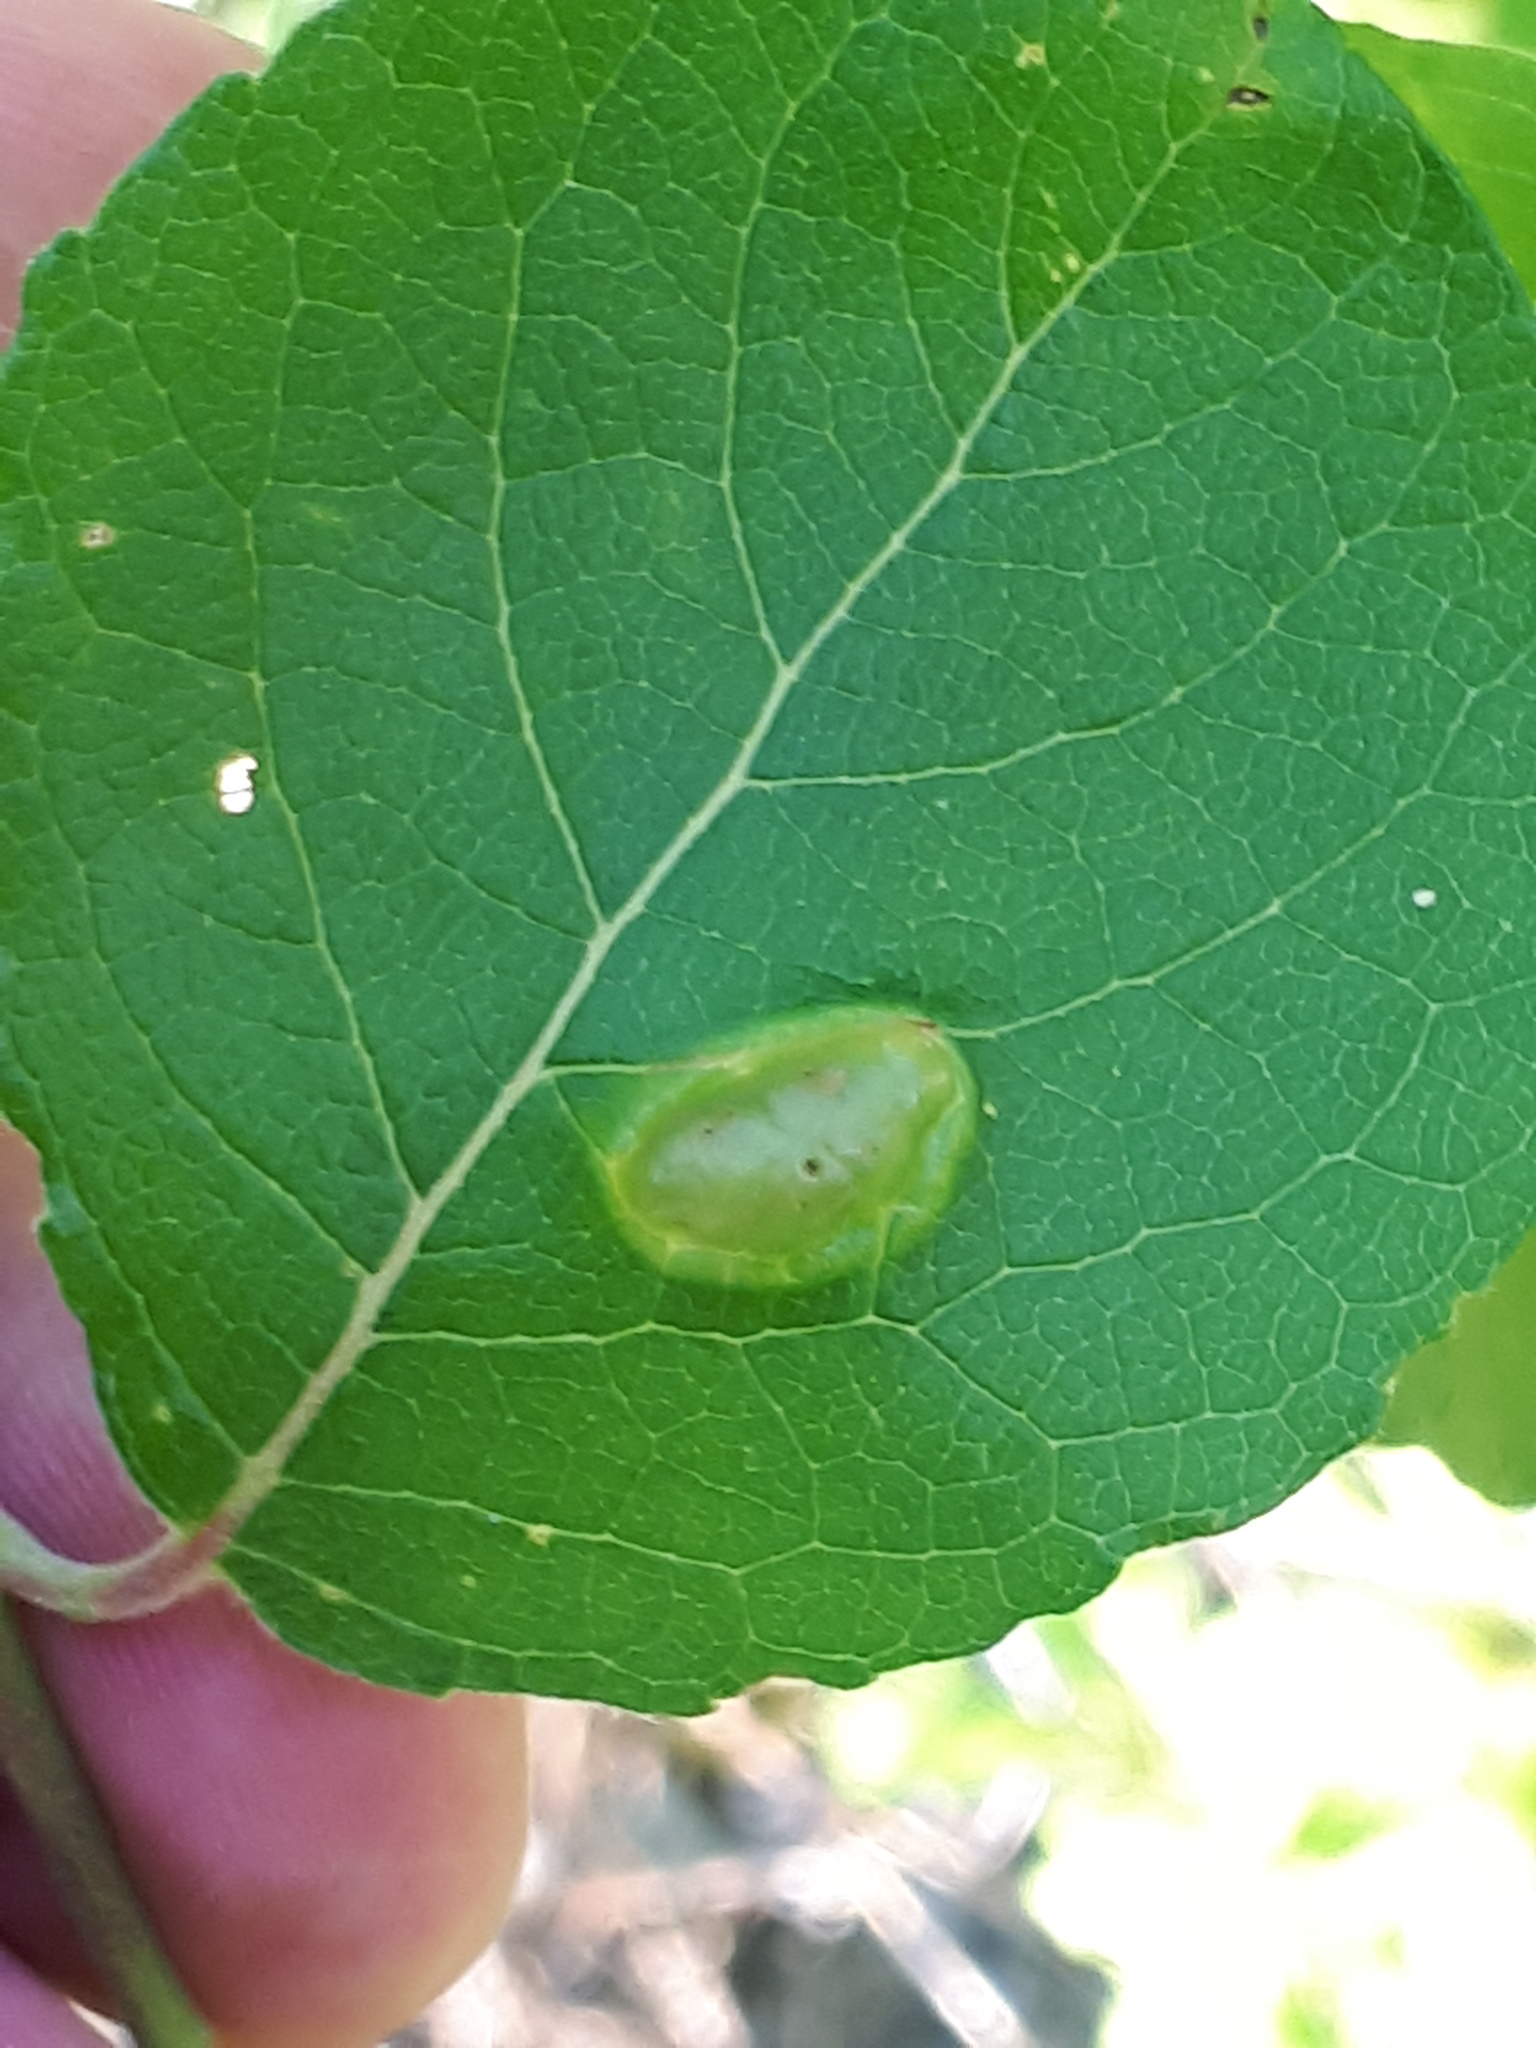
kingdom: Animalia
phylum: Arthropoda
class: Insecta
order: Hymenoptera
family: Tenthredinidae
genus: Pontania
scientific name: Pontania bridgmanii
